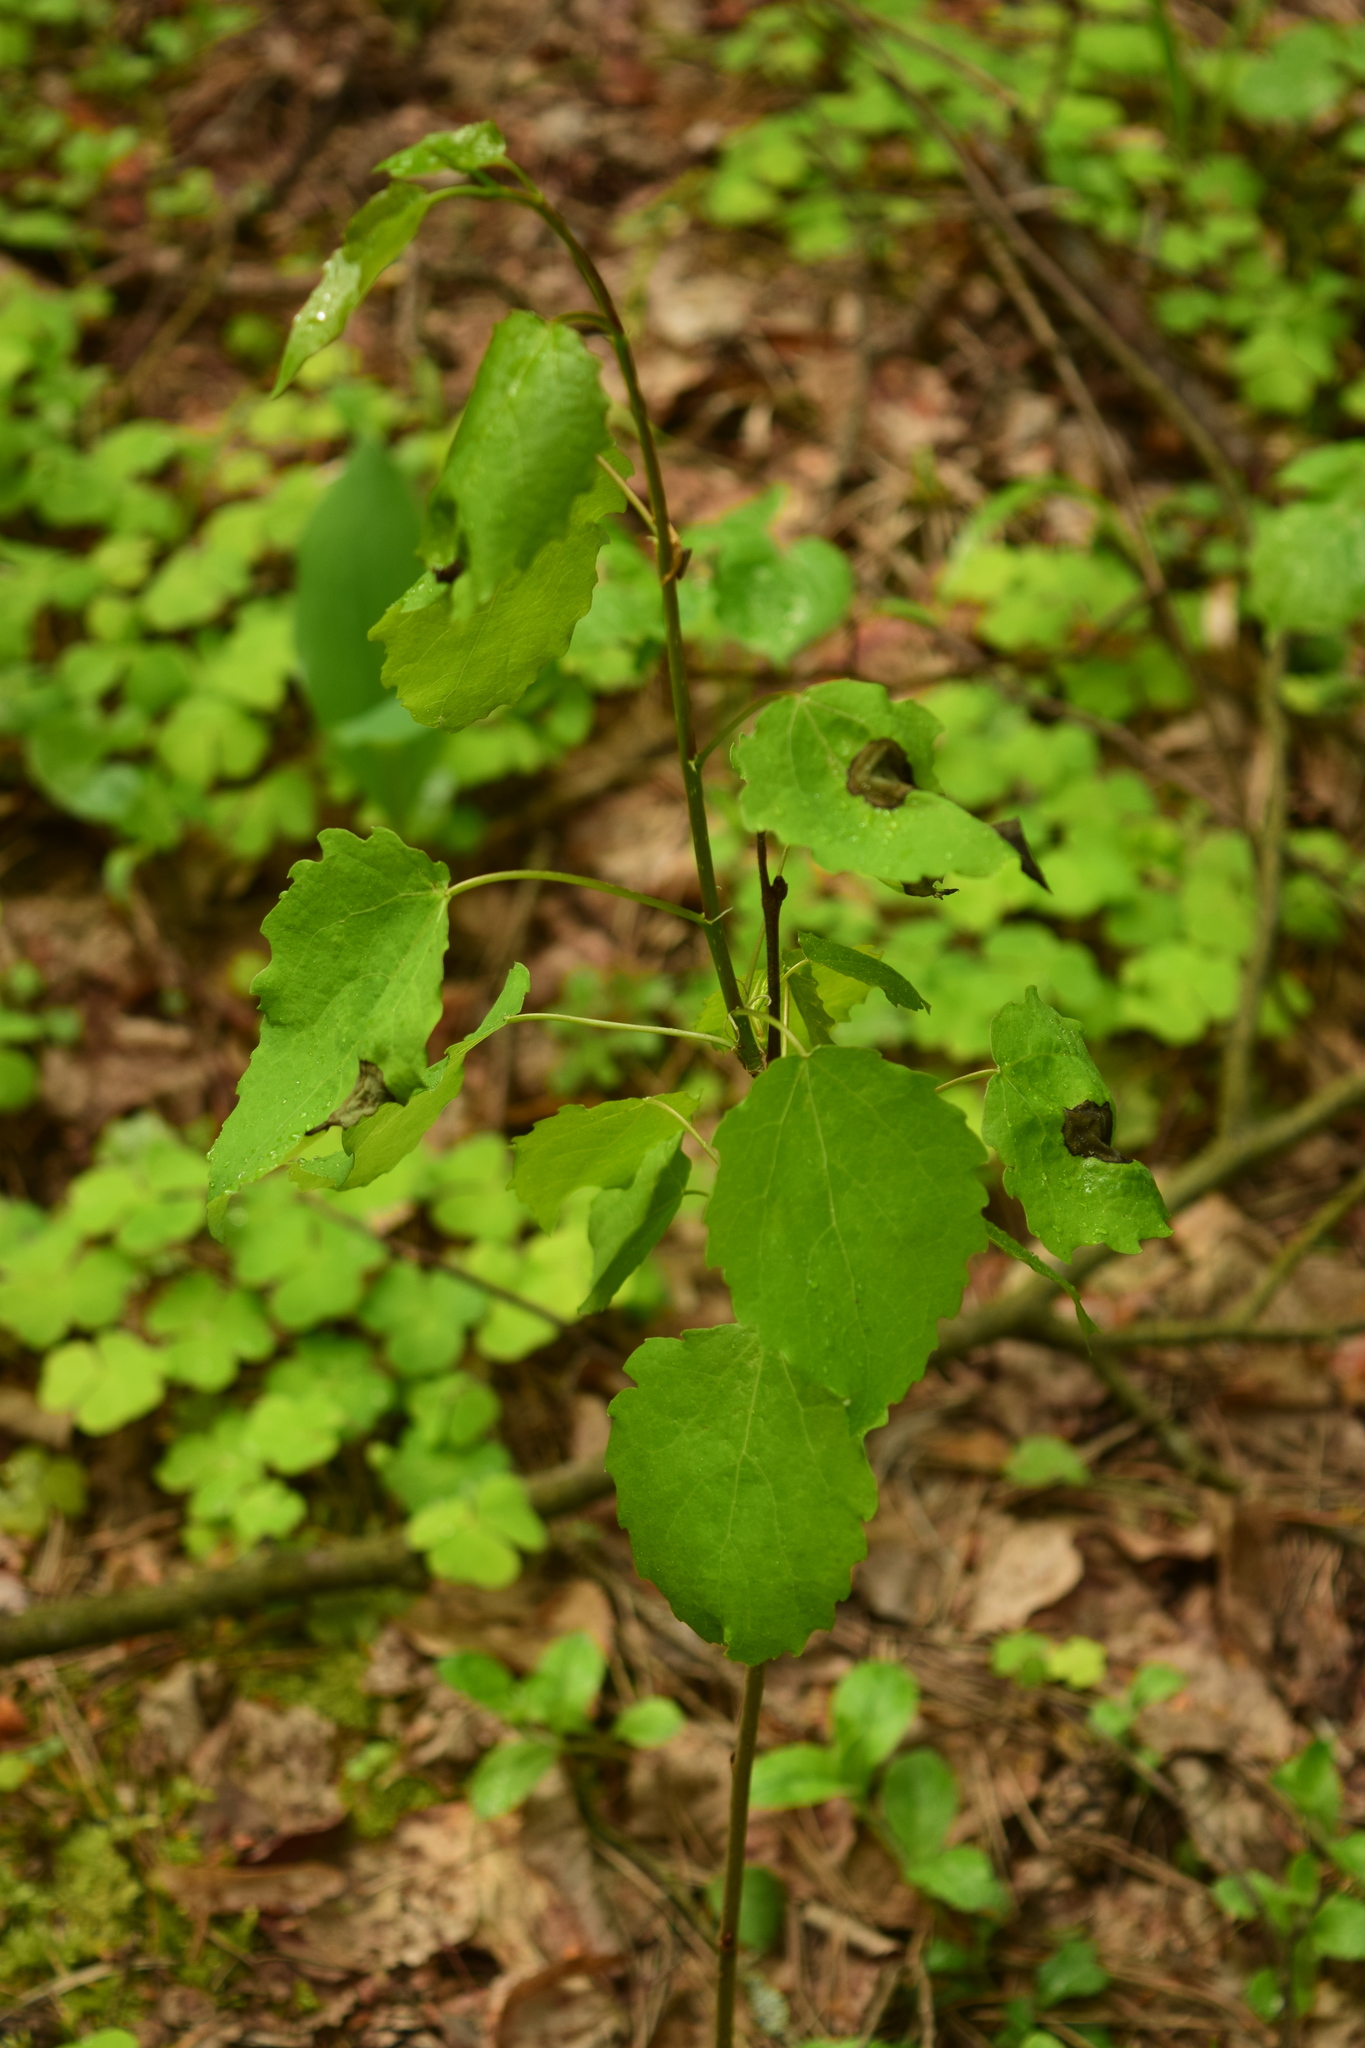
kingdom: Plantae
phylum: Tracheophyta
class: Magnoliopsida
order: Malpighiales
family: Salicaceae
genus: Populus
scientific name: Populus tremula
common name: European aspen
